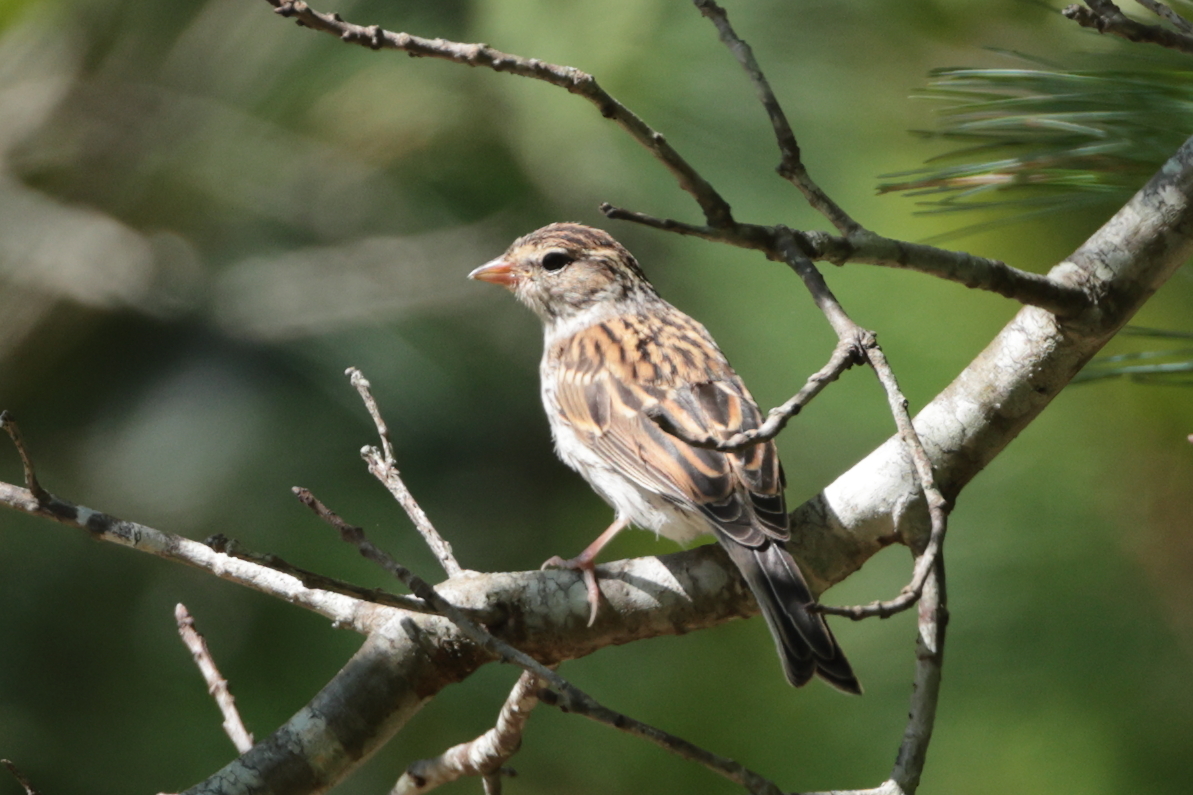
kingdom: Animalia
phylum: Chordata
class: Aves
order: Passeriformes
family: Passerellidae
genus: Spizella
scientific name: Spizella passerina
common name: Chipping sparrow
